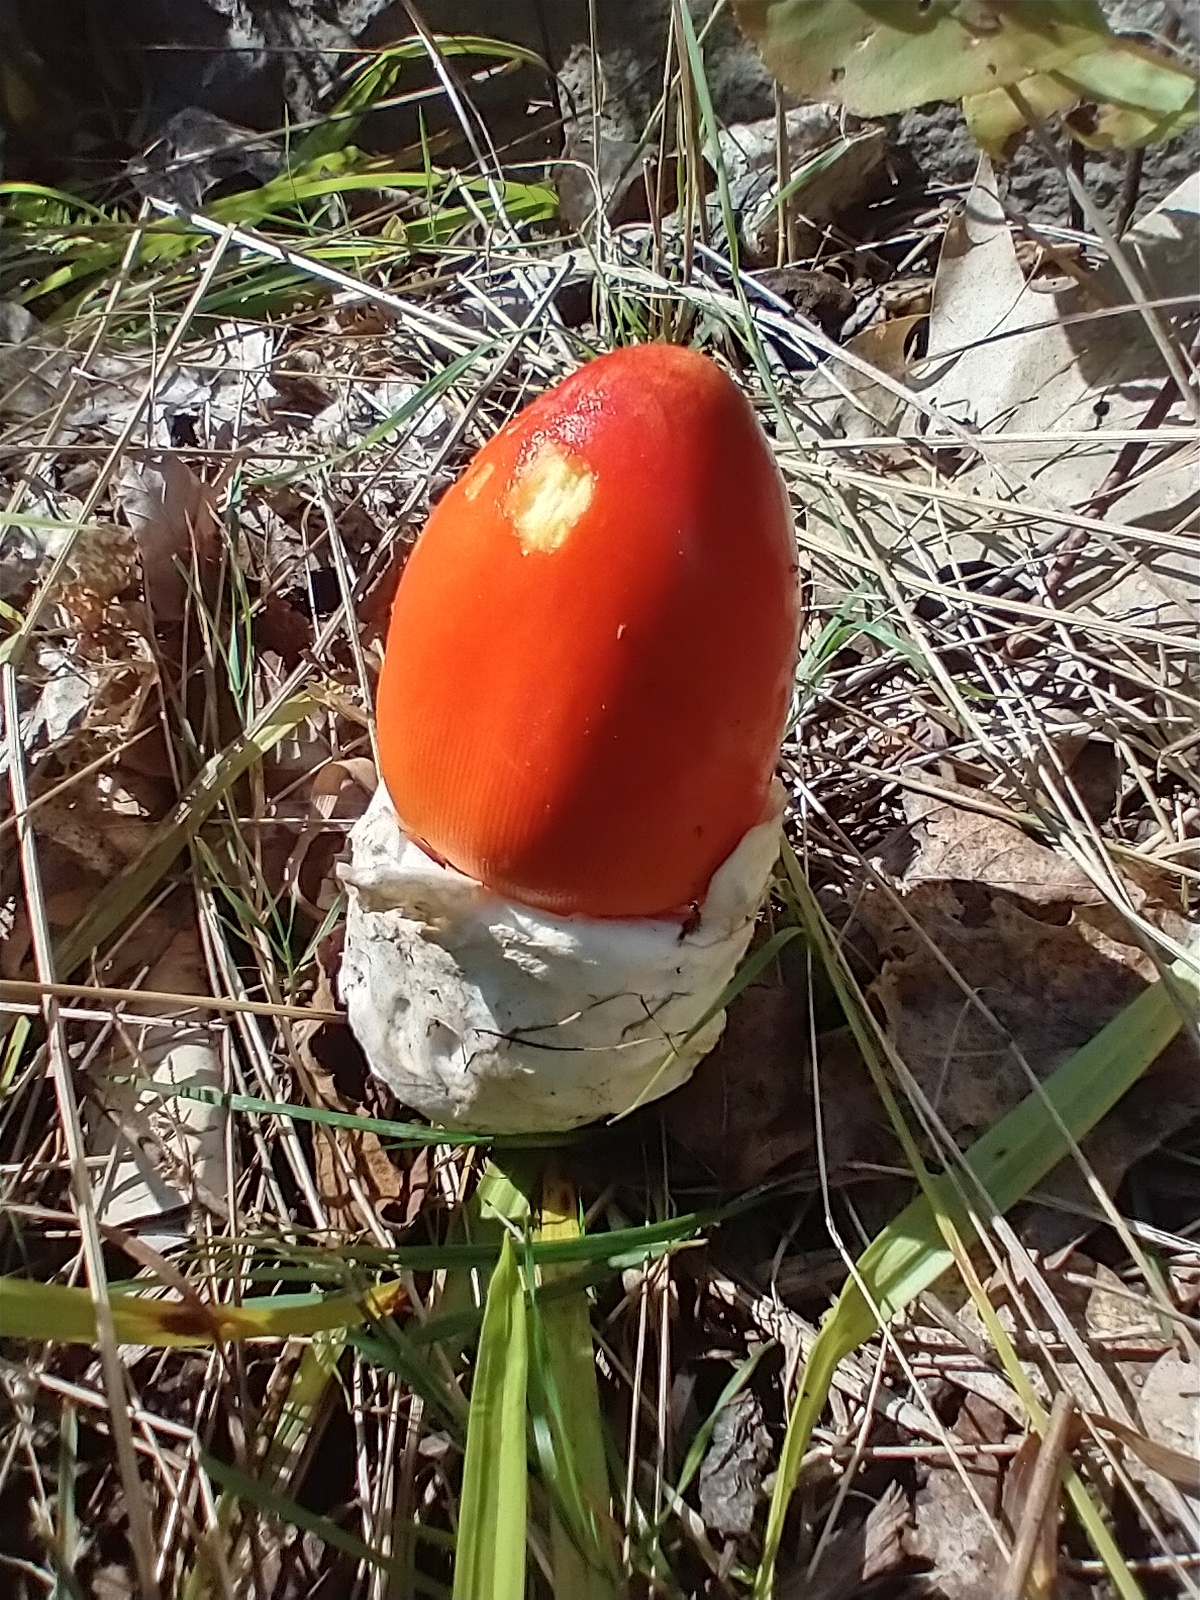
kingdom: Fungi
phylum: Basidiomycota
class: Agaricomycetes
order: Agaricales
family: Amanitaceae
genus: Amanita
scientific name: Amanita jacksonii
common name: Jackson's slender caesar
